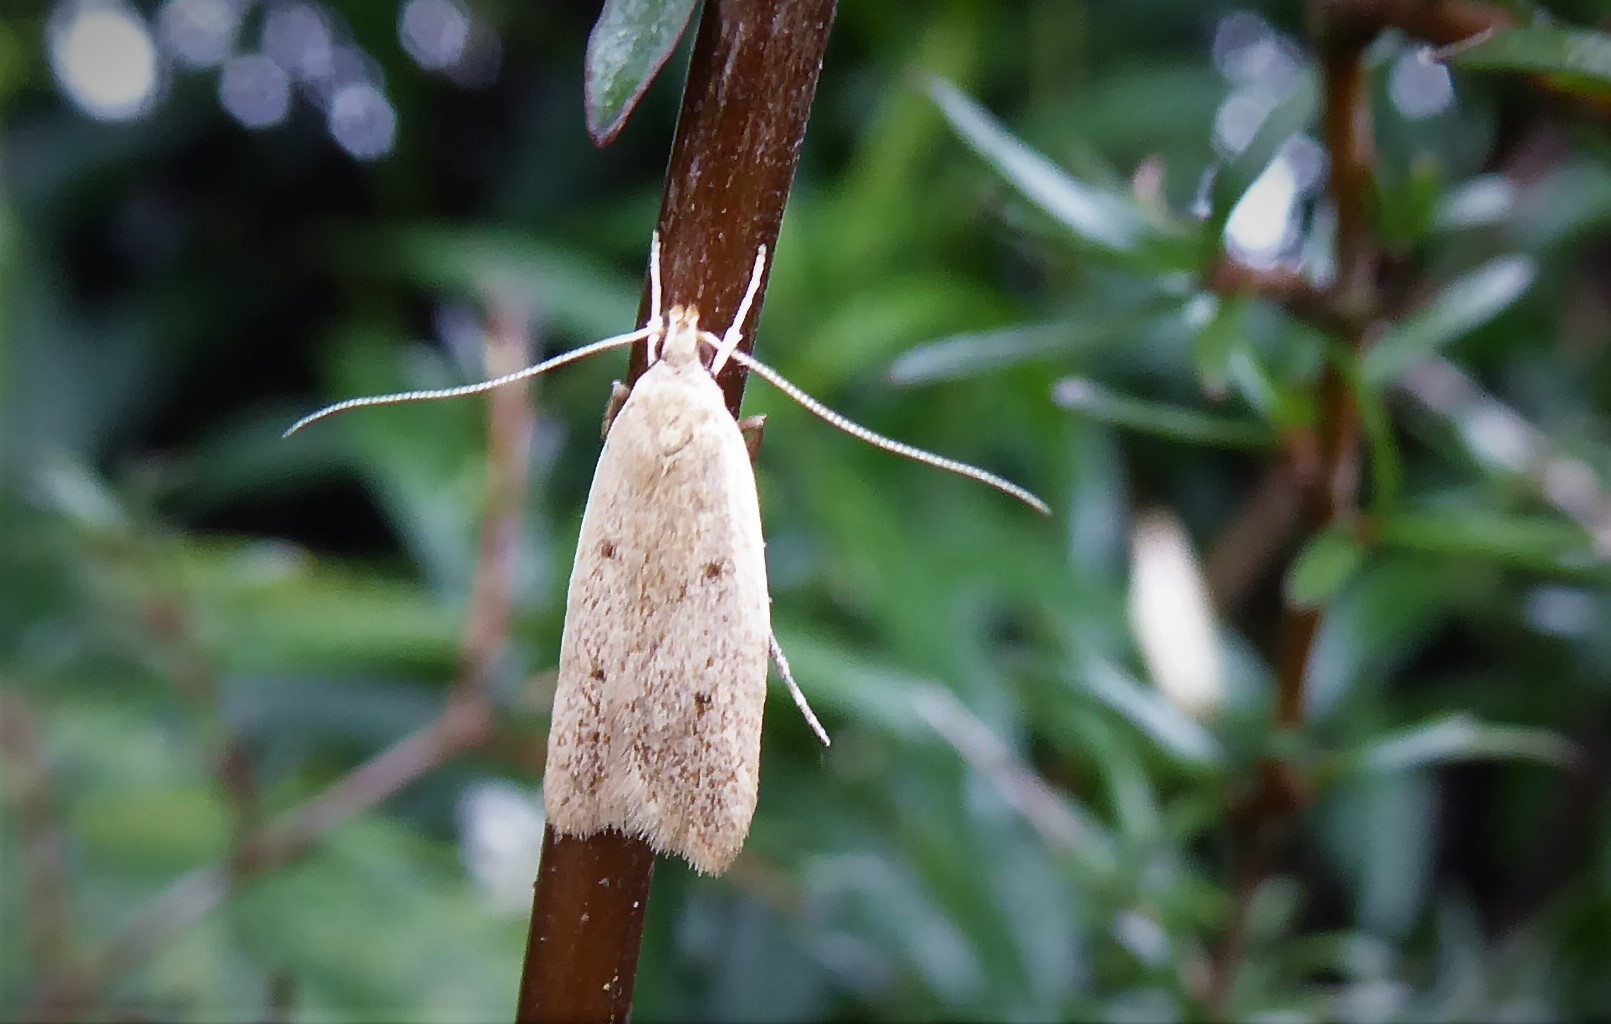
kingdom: Animalia
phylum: Arthropoda
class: Insecta
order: Lepidoptera
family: Oecophoridae
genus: Gymnobathra
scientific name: Gymnobathra sarcoxantha
